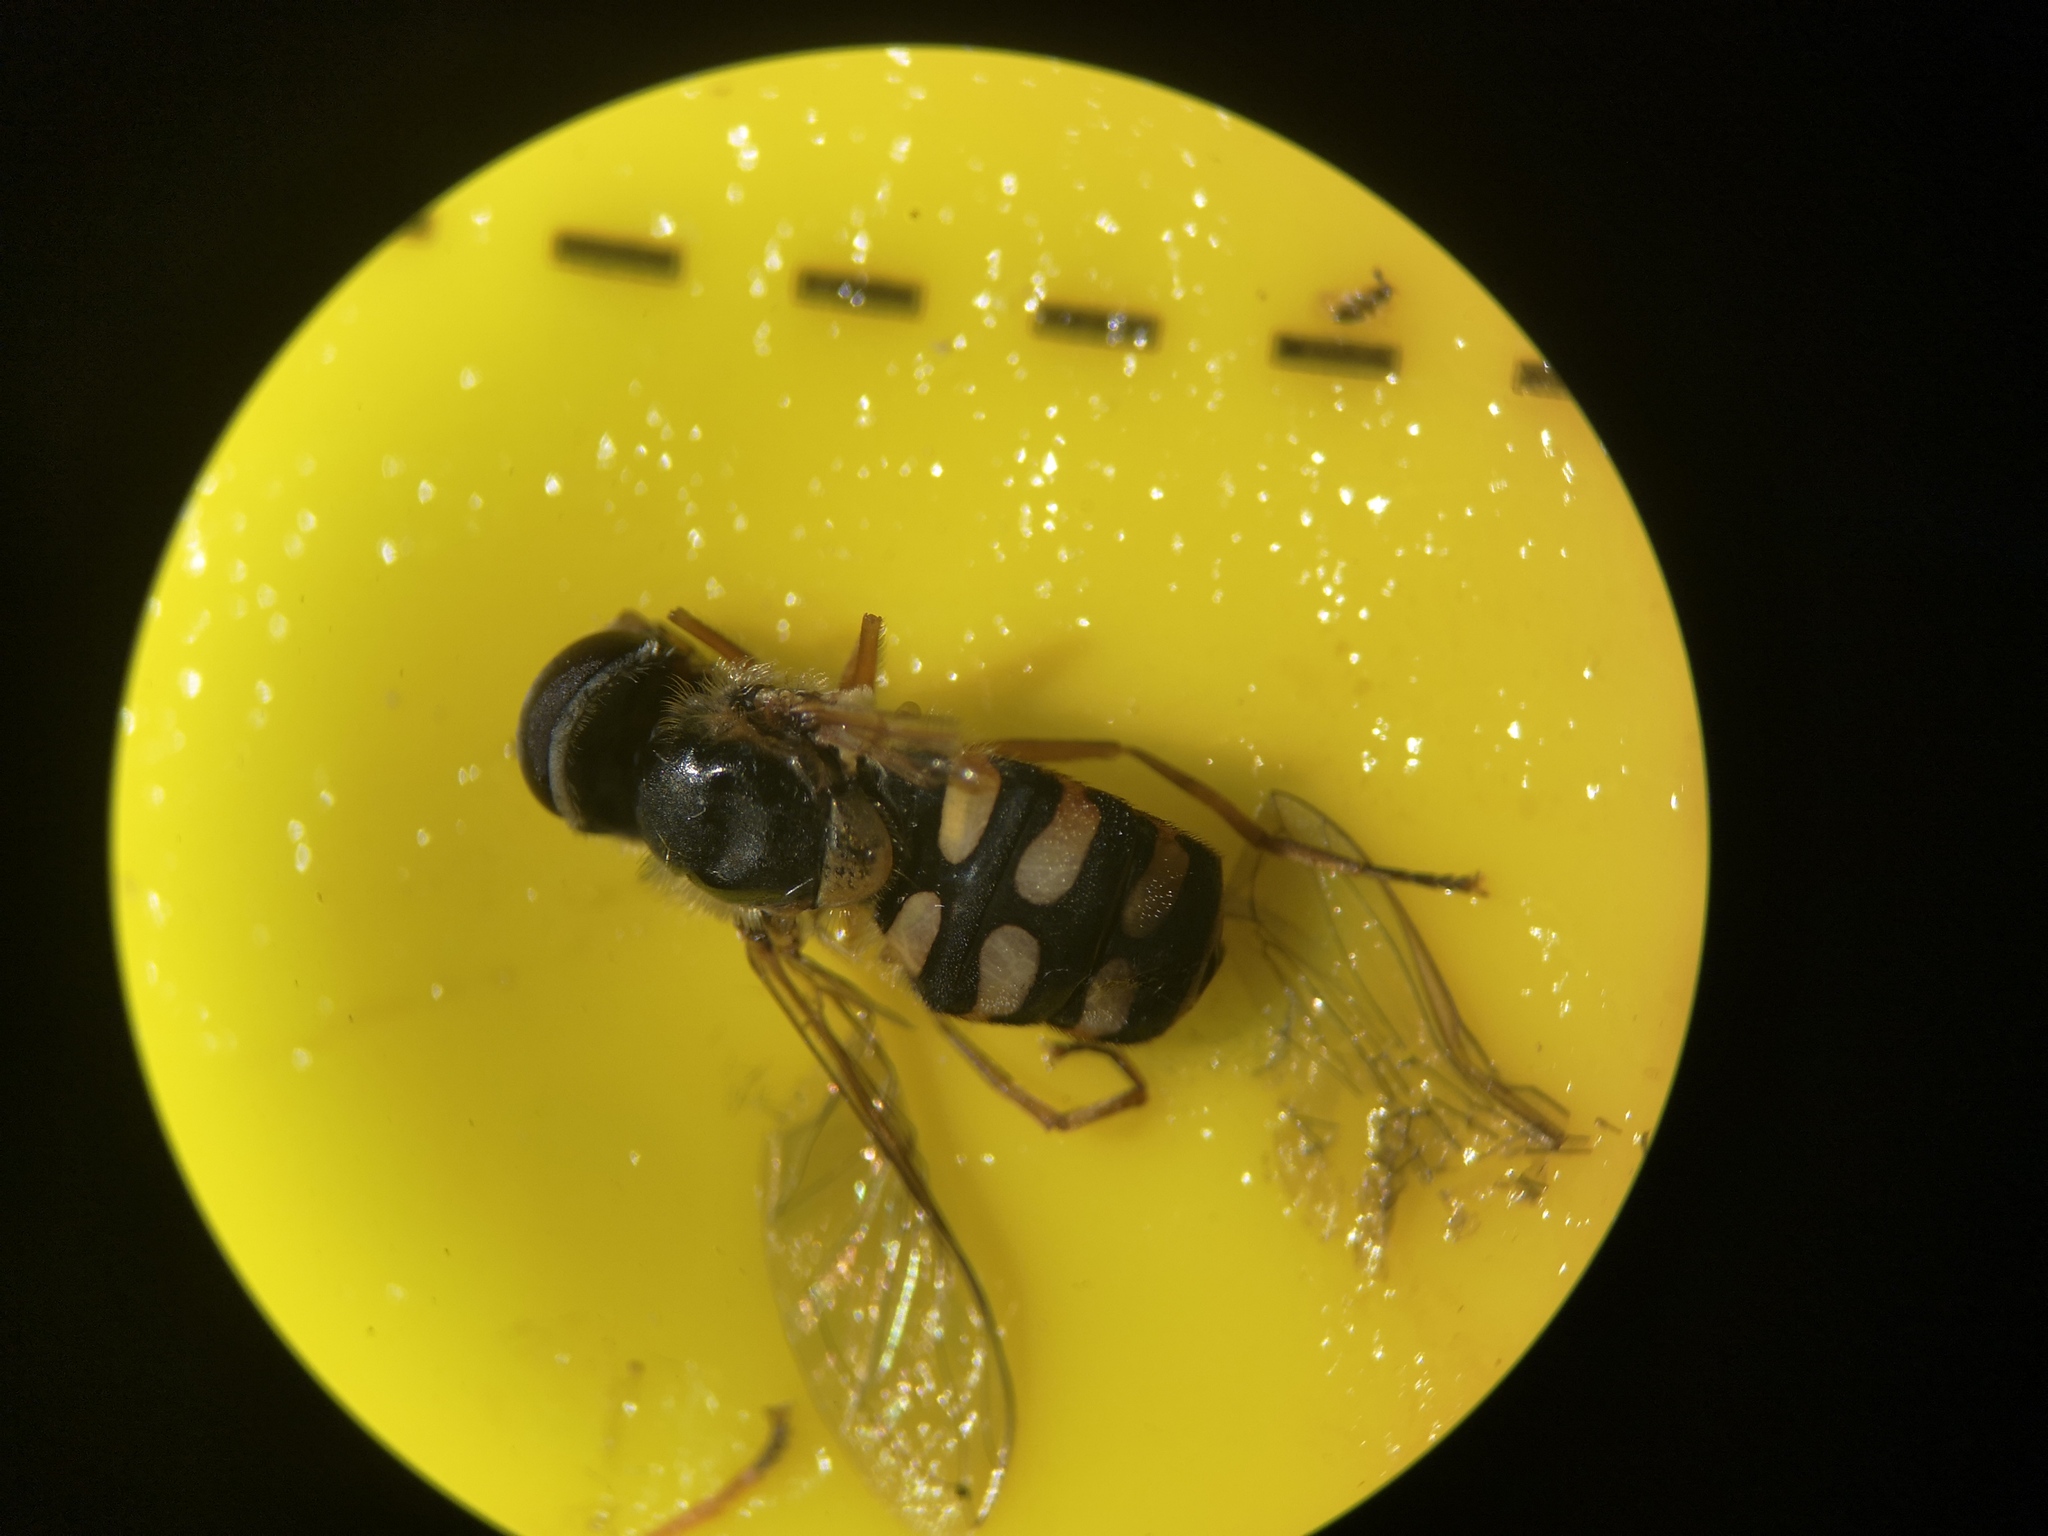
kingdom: Animalia
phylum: Arthropoda
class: Insecta
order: Diptera
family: Syrphidae
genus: Eupeodes
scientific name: Eupeodes corollae
